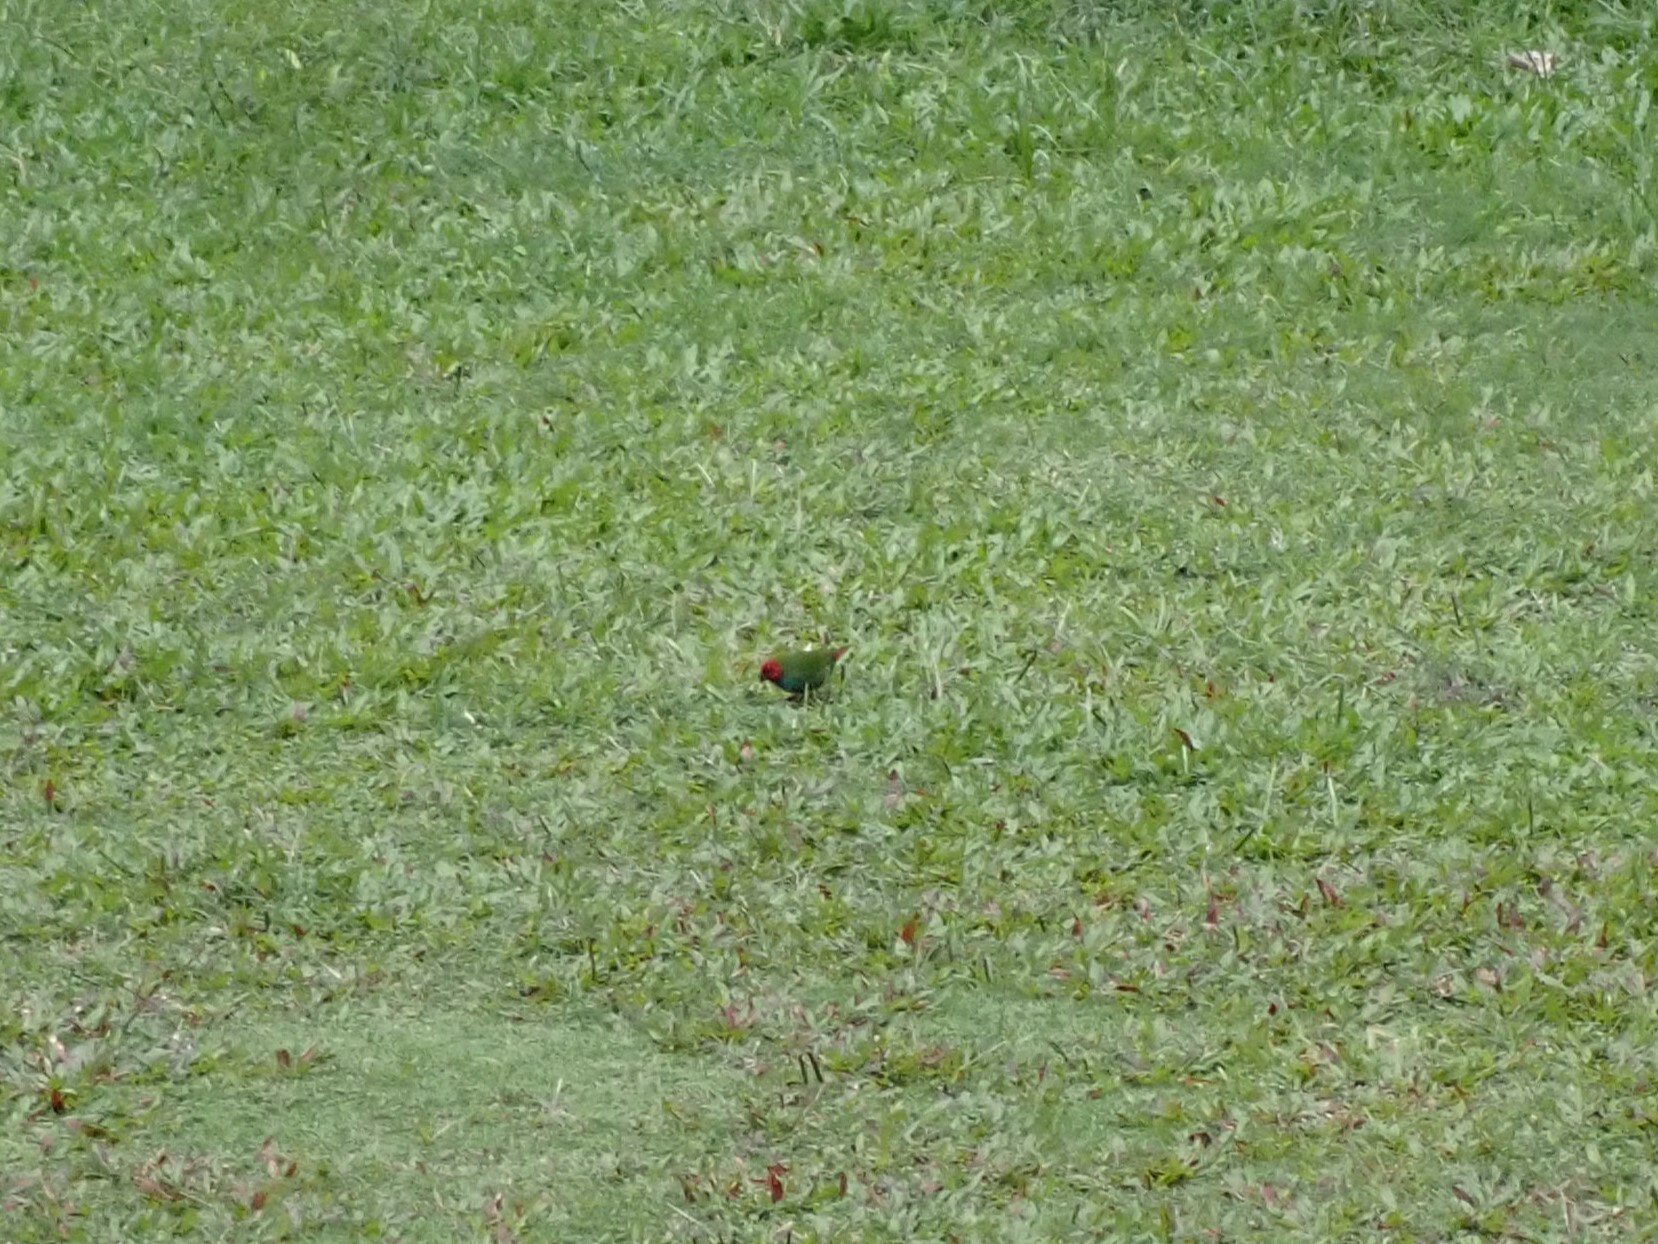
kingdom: Animalia
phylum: Chordata
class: Aves
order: Passeriformes
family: Estrildidae
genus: Erythrura
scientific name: Erythrura pealii
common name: Fiji parrotfinch
